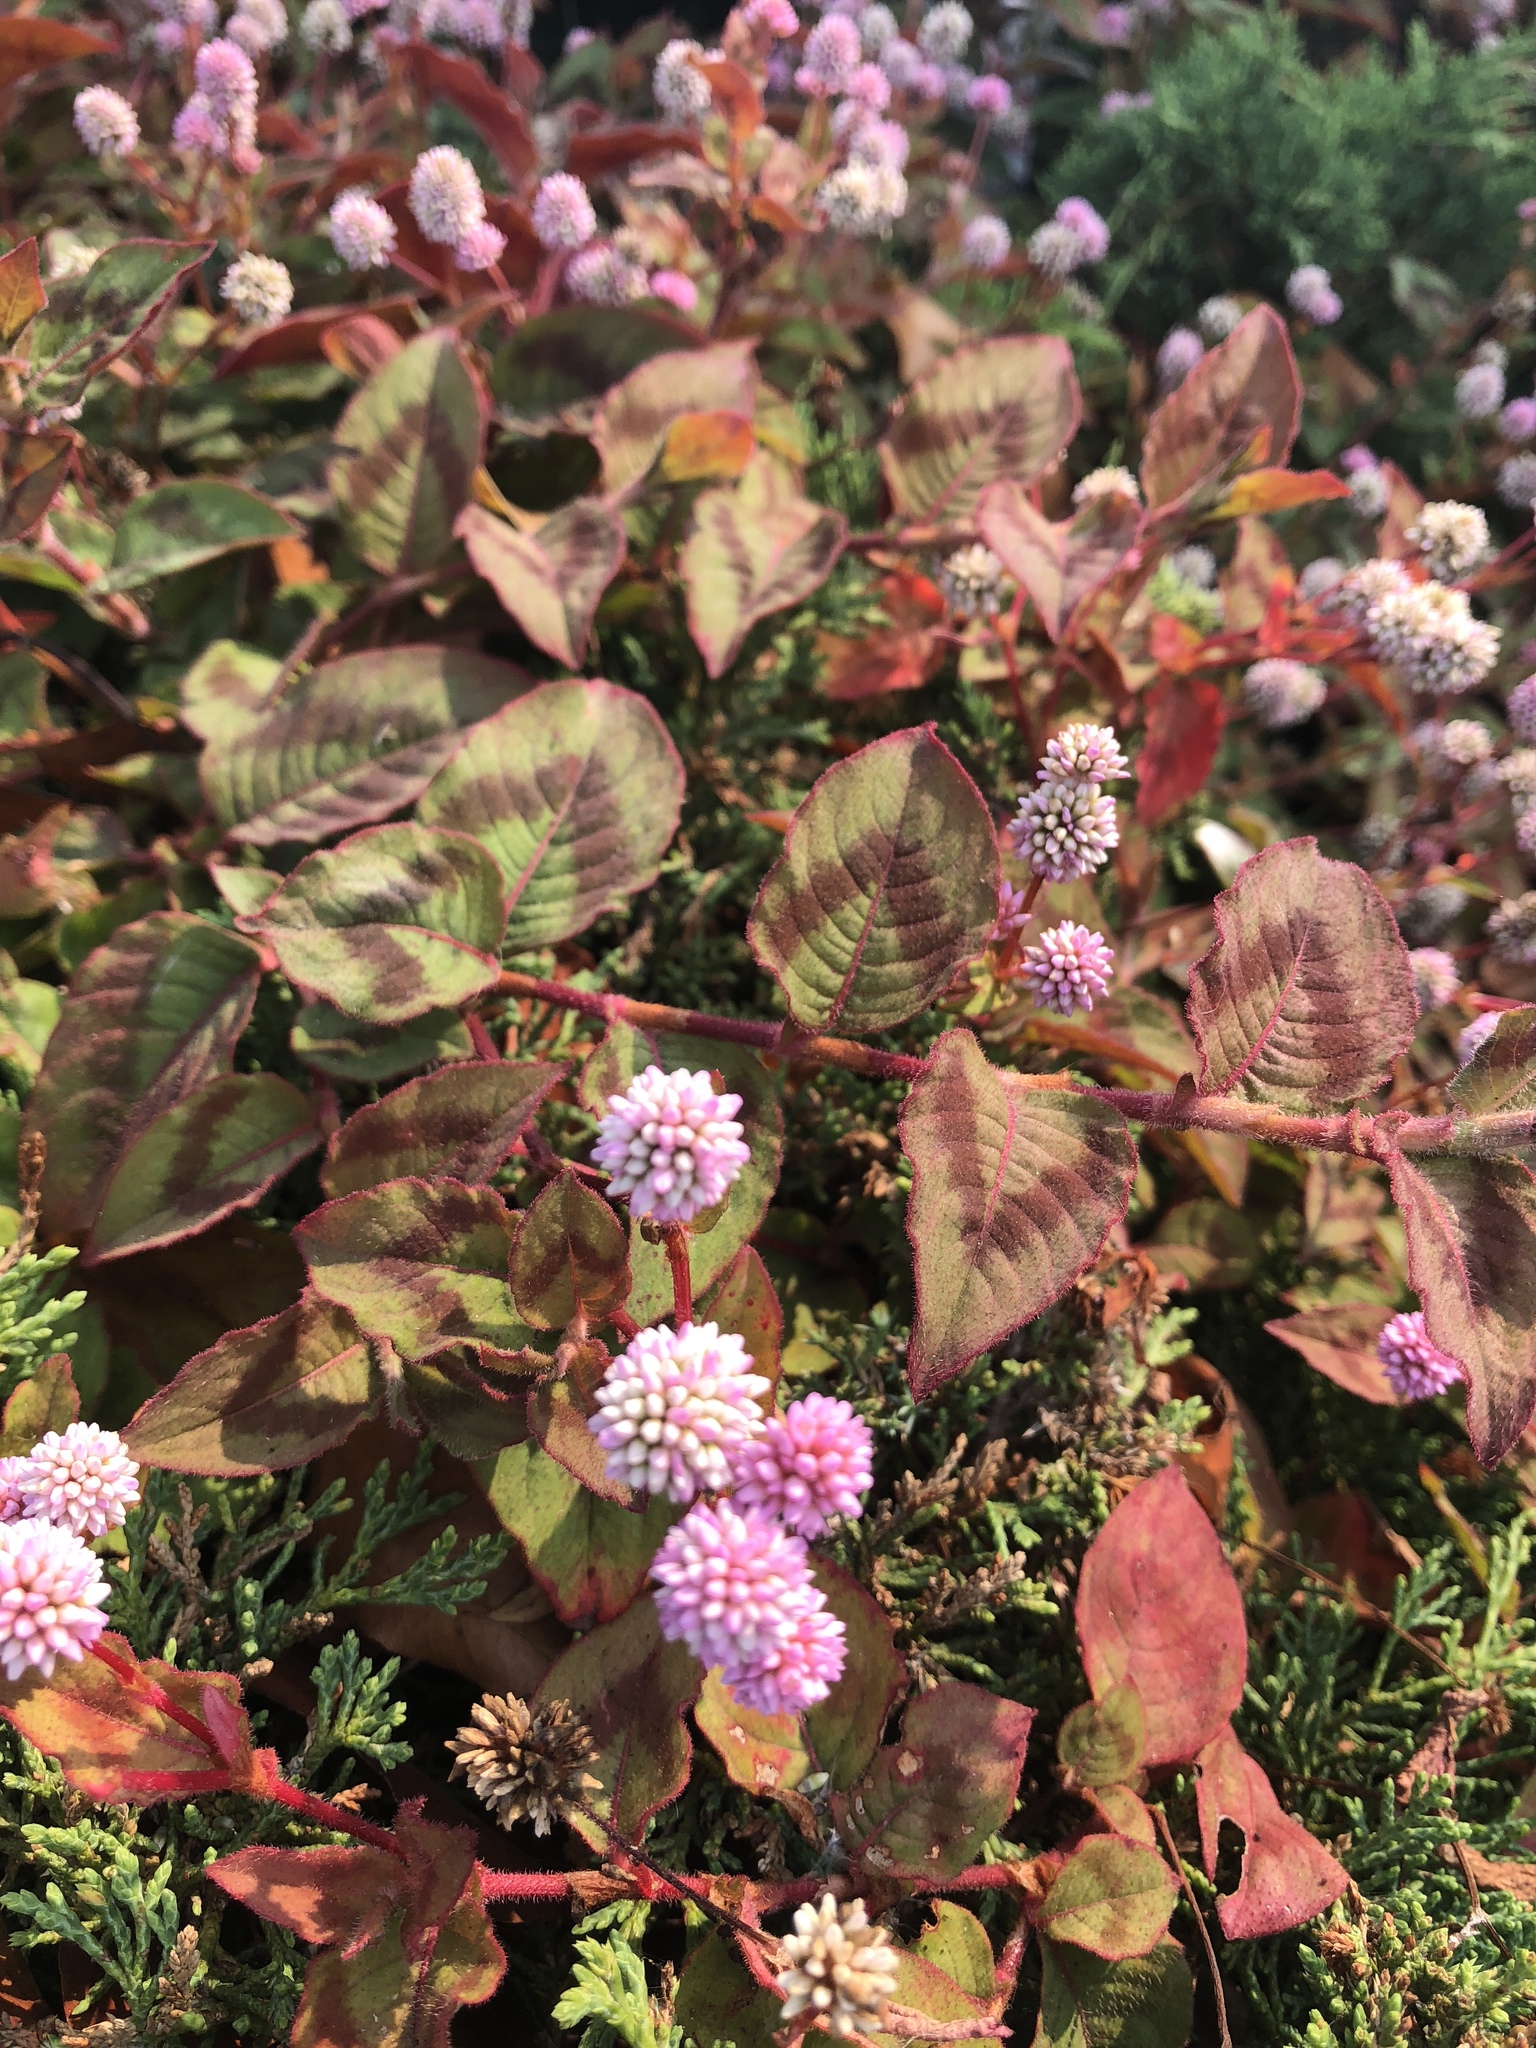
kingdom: Plantae
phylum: Tracheophyta
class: Magnoliopsida
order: Caryophyllales
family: Polygonaceae
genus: Persicaria
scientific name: Persicaria capitata
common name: Pinkhead smartweed
